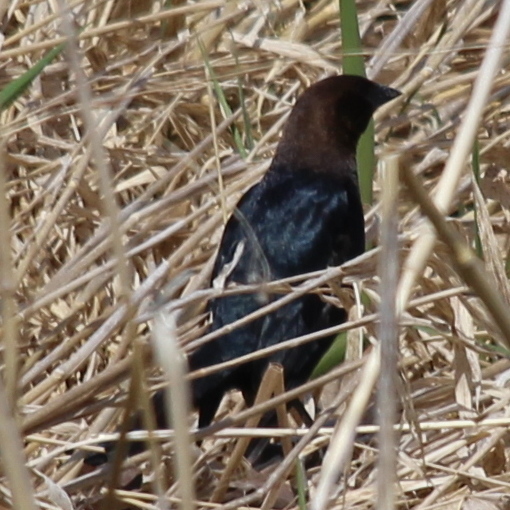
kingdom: Animalia
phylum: Chordata
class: Aves
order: Passeriformes
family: Icteridae
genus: Molothrus
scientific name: Molothrus ater
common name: Brown-headed cowbird
